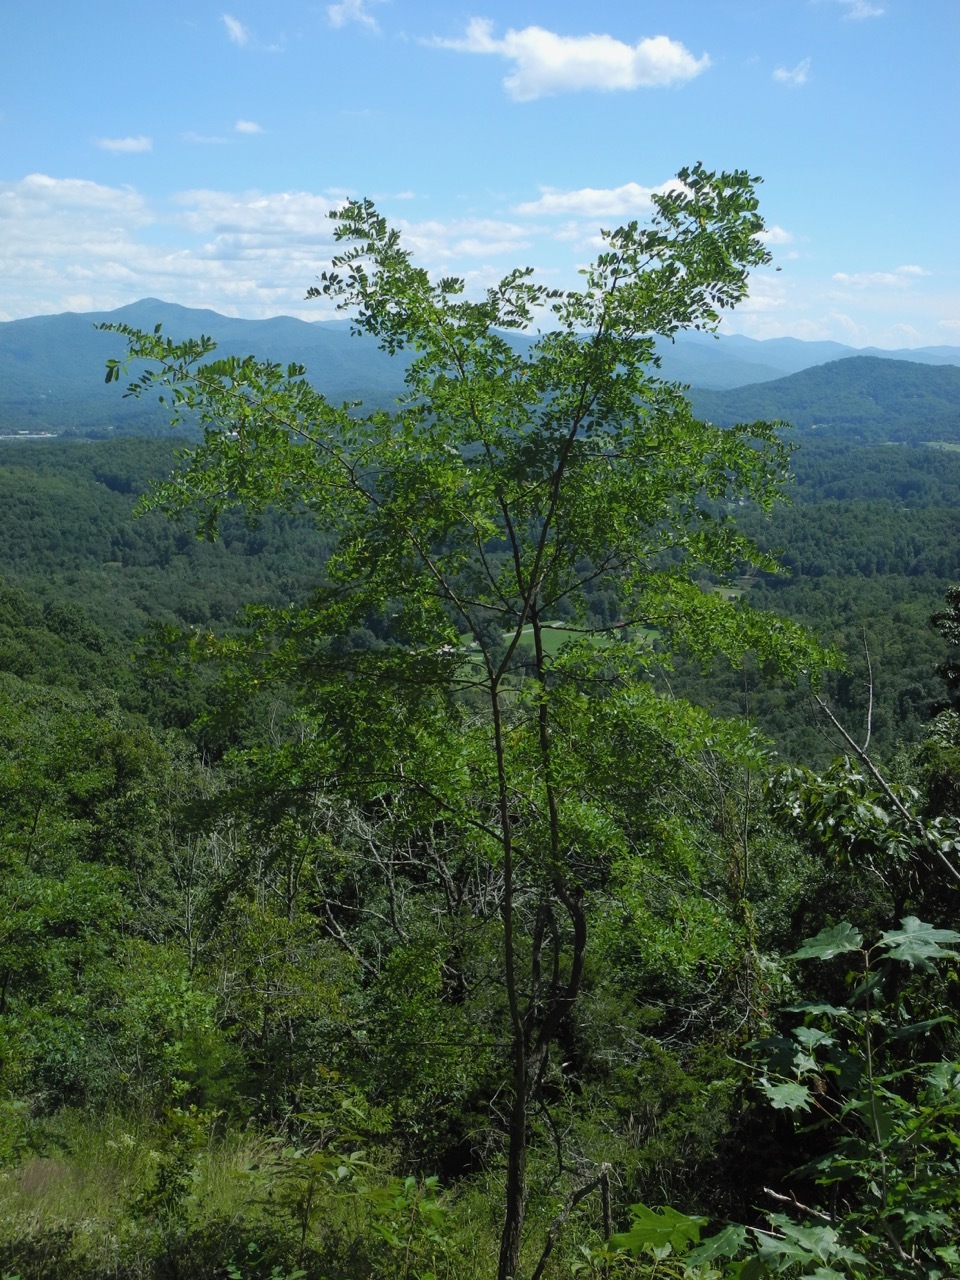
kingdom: Plantae
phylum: Tracheophyta
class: Magnoliopsida
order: Fabales
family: Fabaceae
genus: Robinia
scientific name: Robinia pseudoacacia
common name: Black locust
